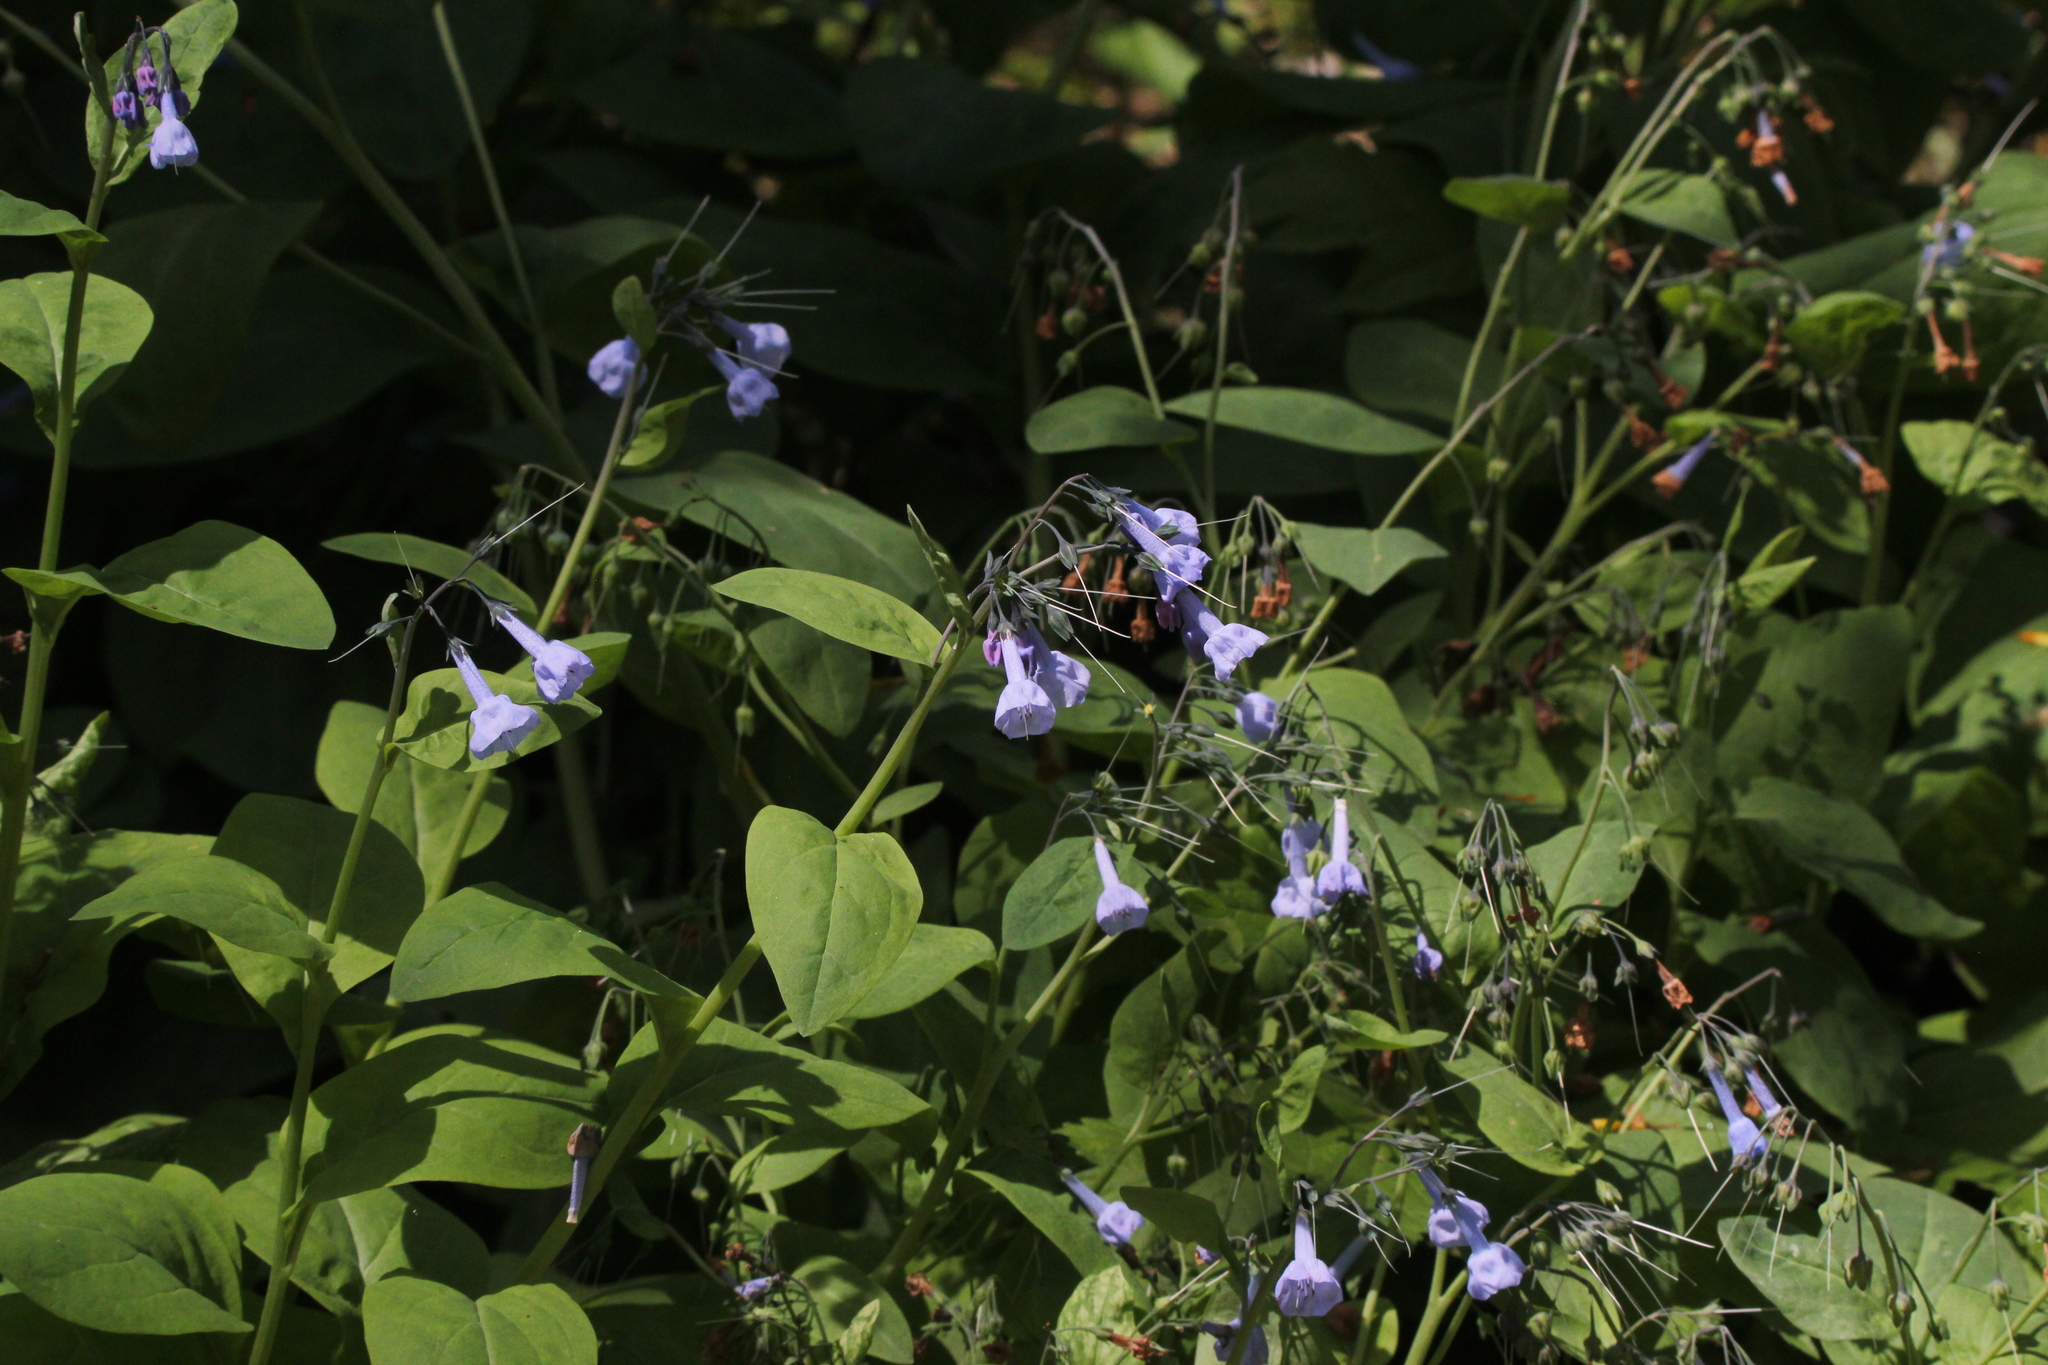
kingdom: Plantae
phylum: Tracheophyta
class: Magnoliopsida
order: Boraginales
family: Boraginaceae
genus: Mertensia
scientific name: Mertensia virginica
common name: Virginia bluebells
